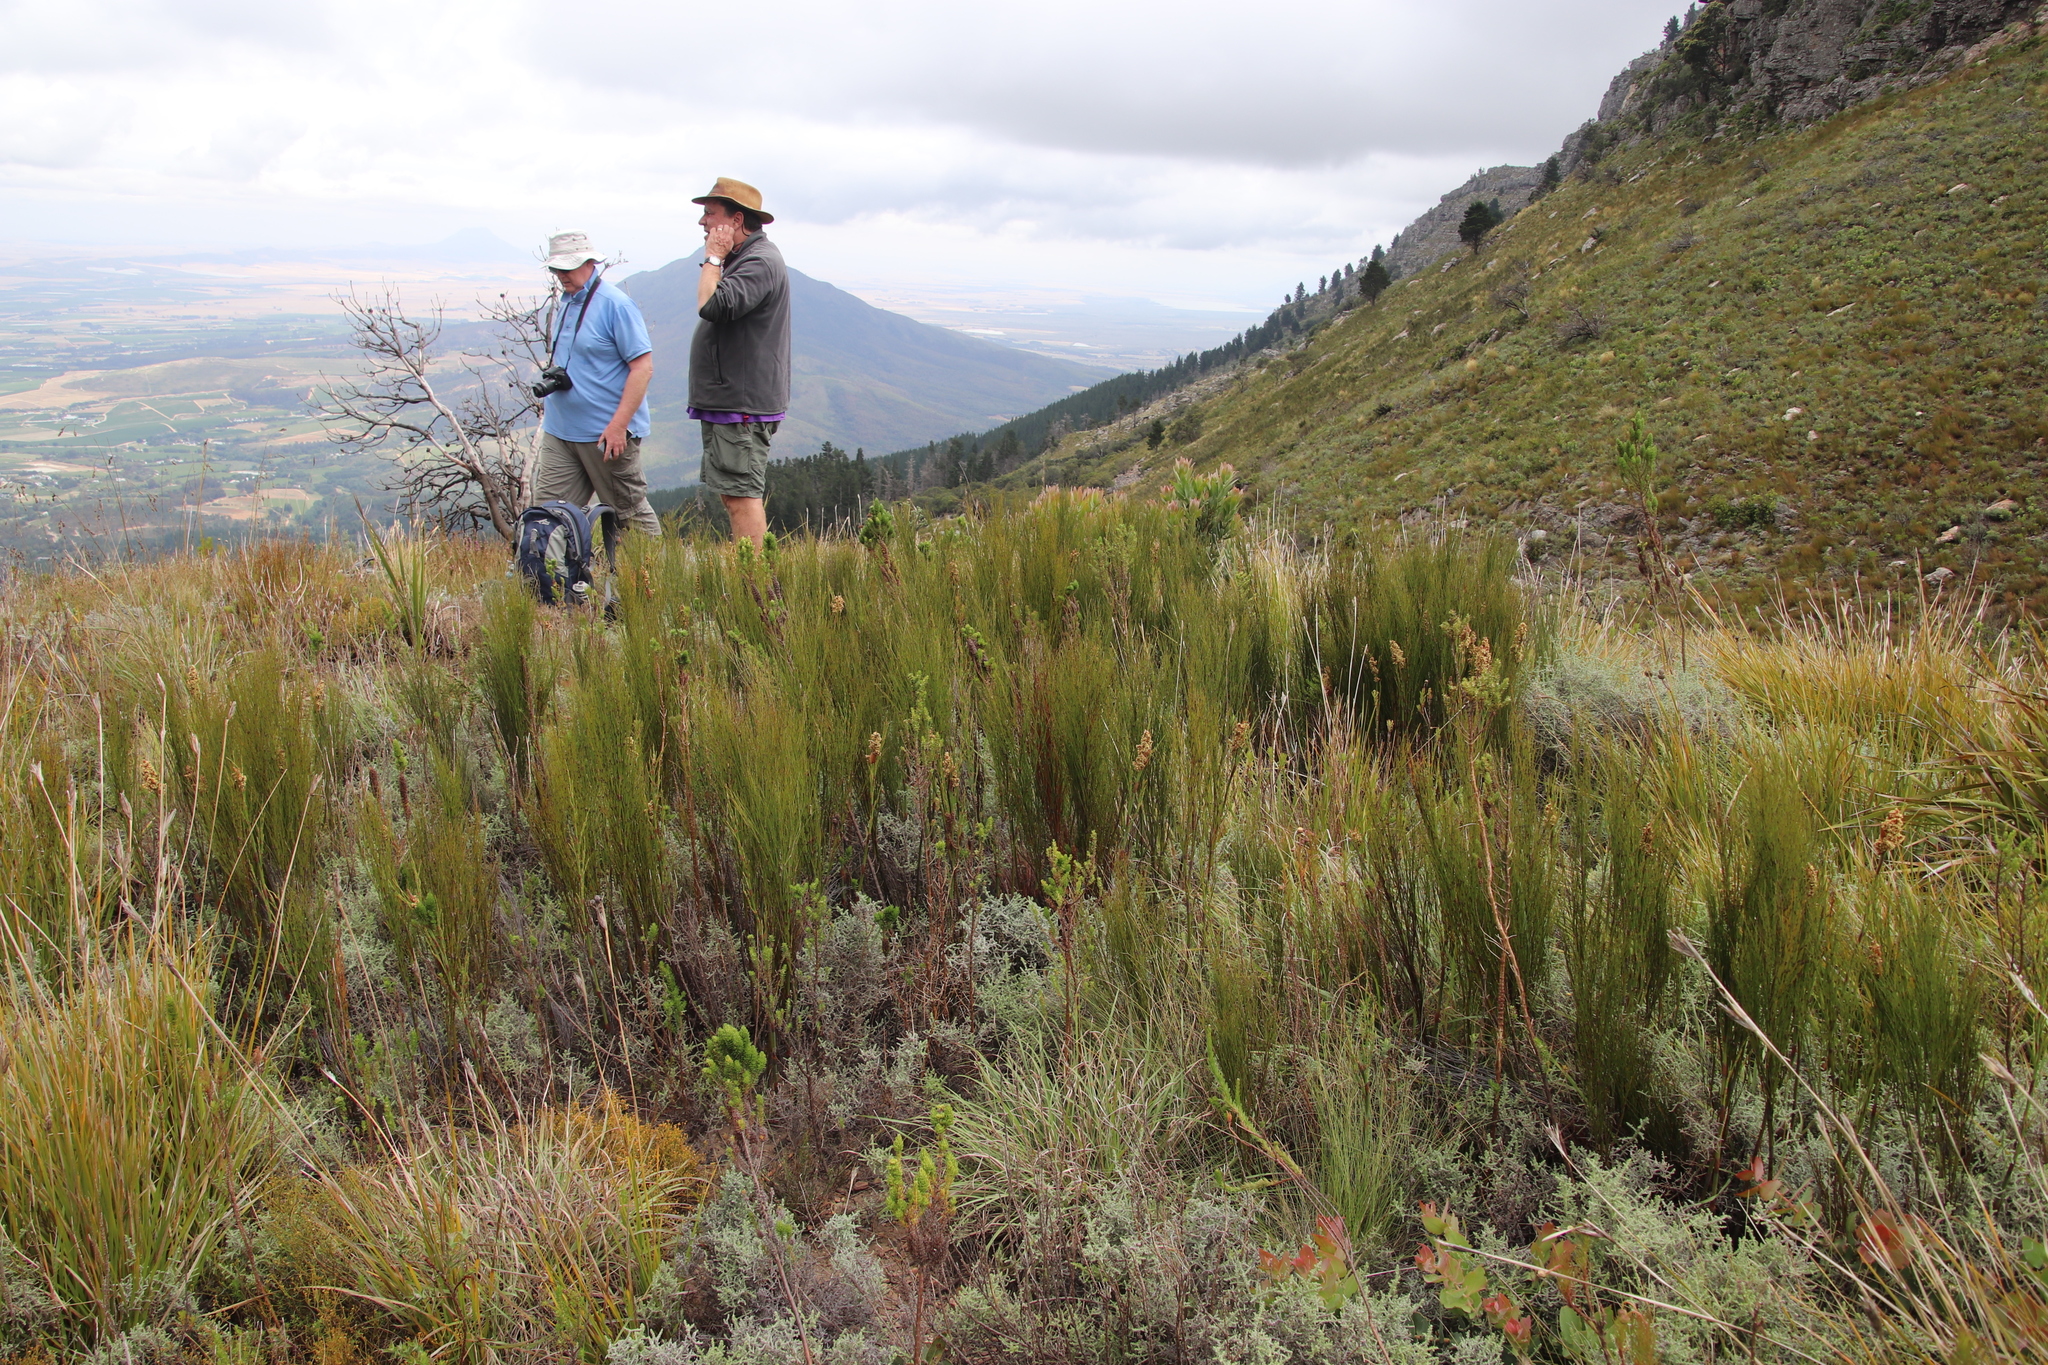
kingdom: Plantae
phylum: Tracheophyta
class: Liliopsida
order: Poales
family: Restionaceae
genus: Cannomois
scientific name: Cannomois virgata
